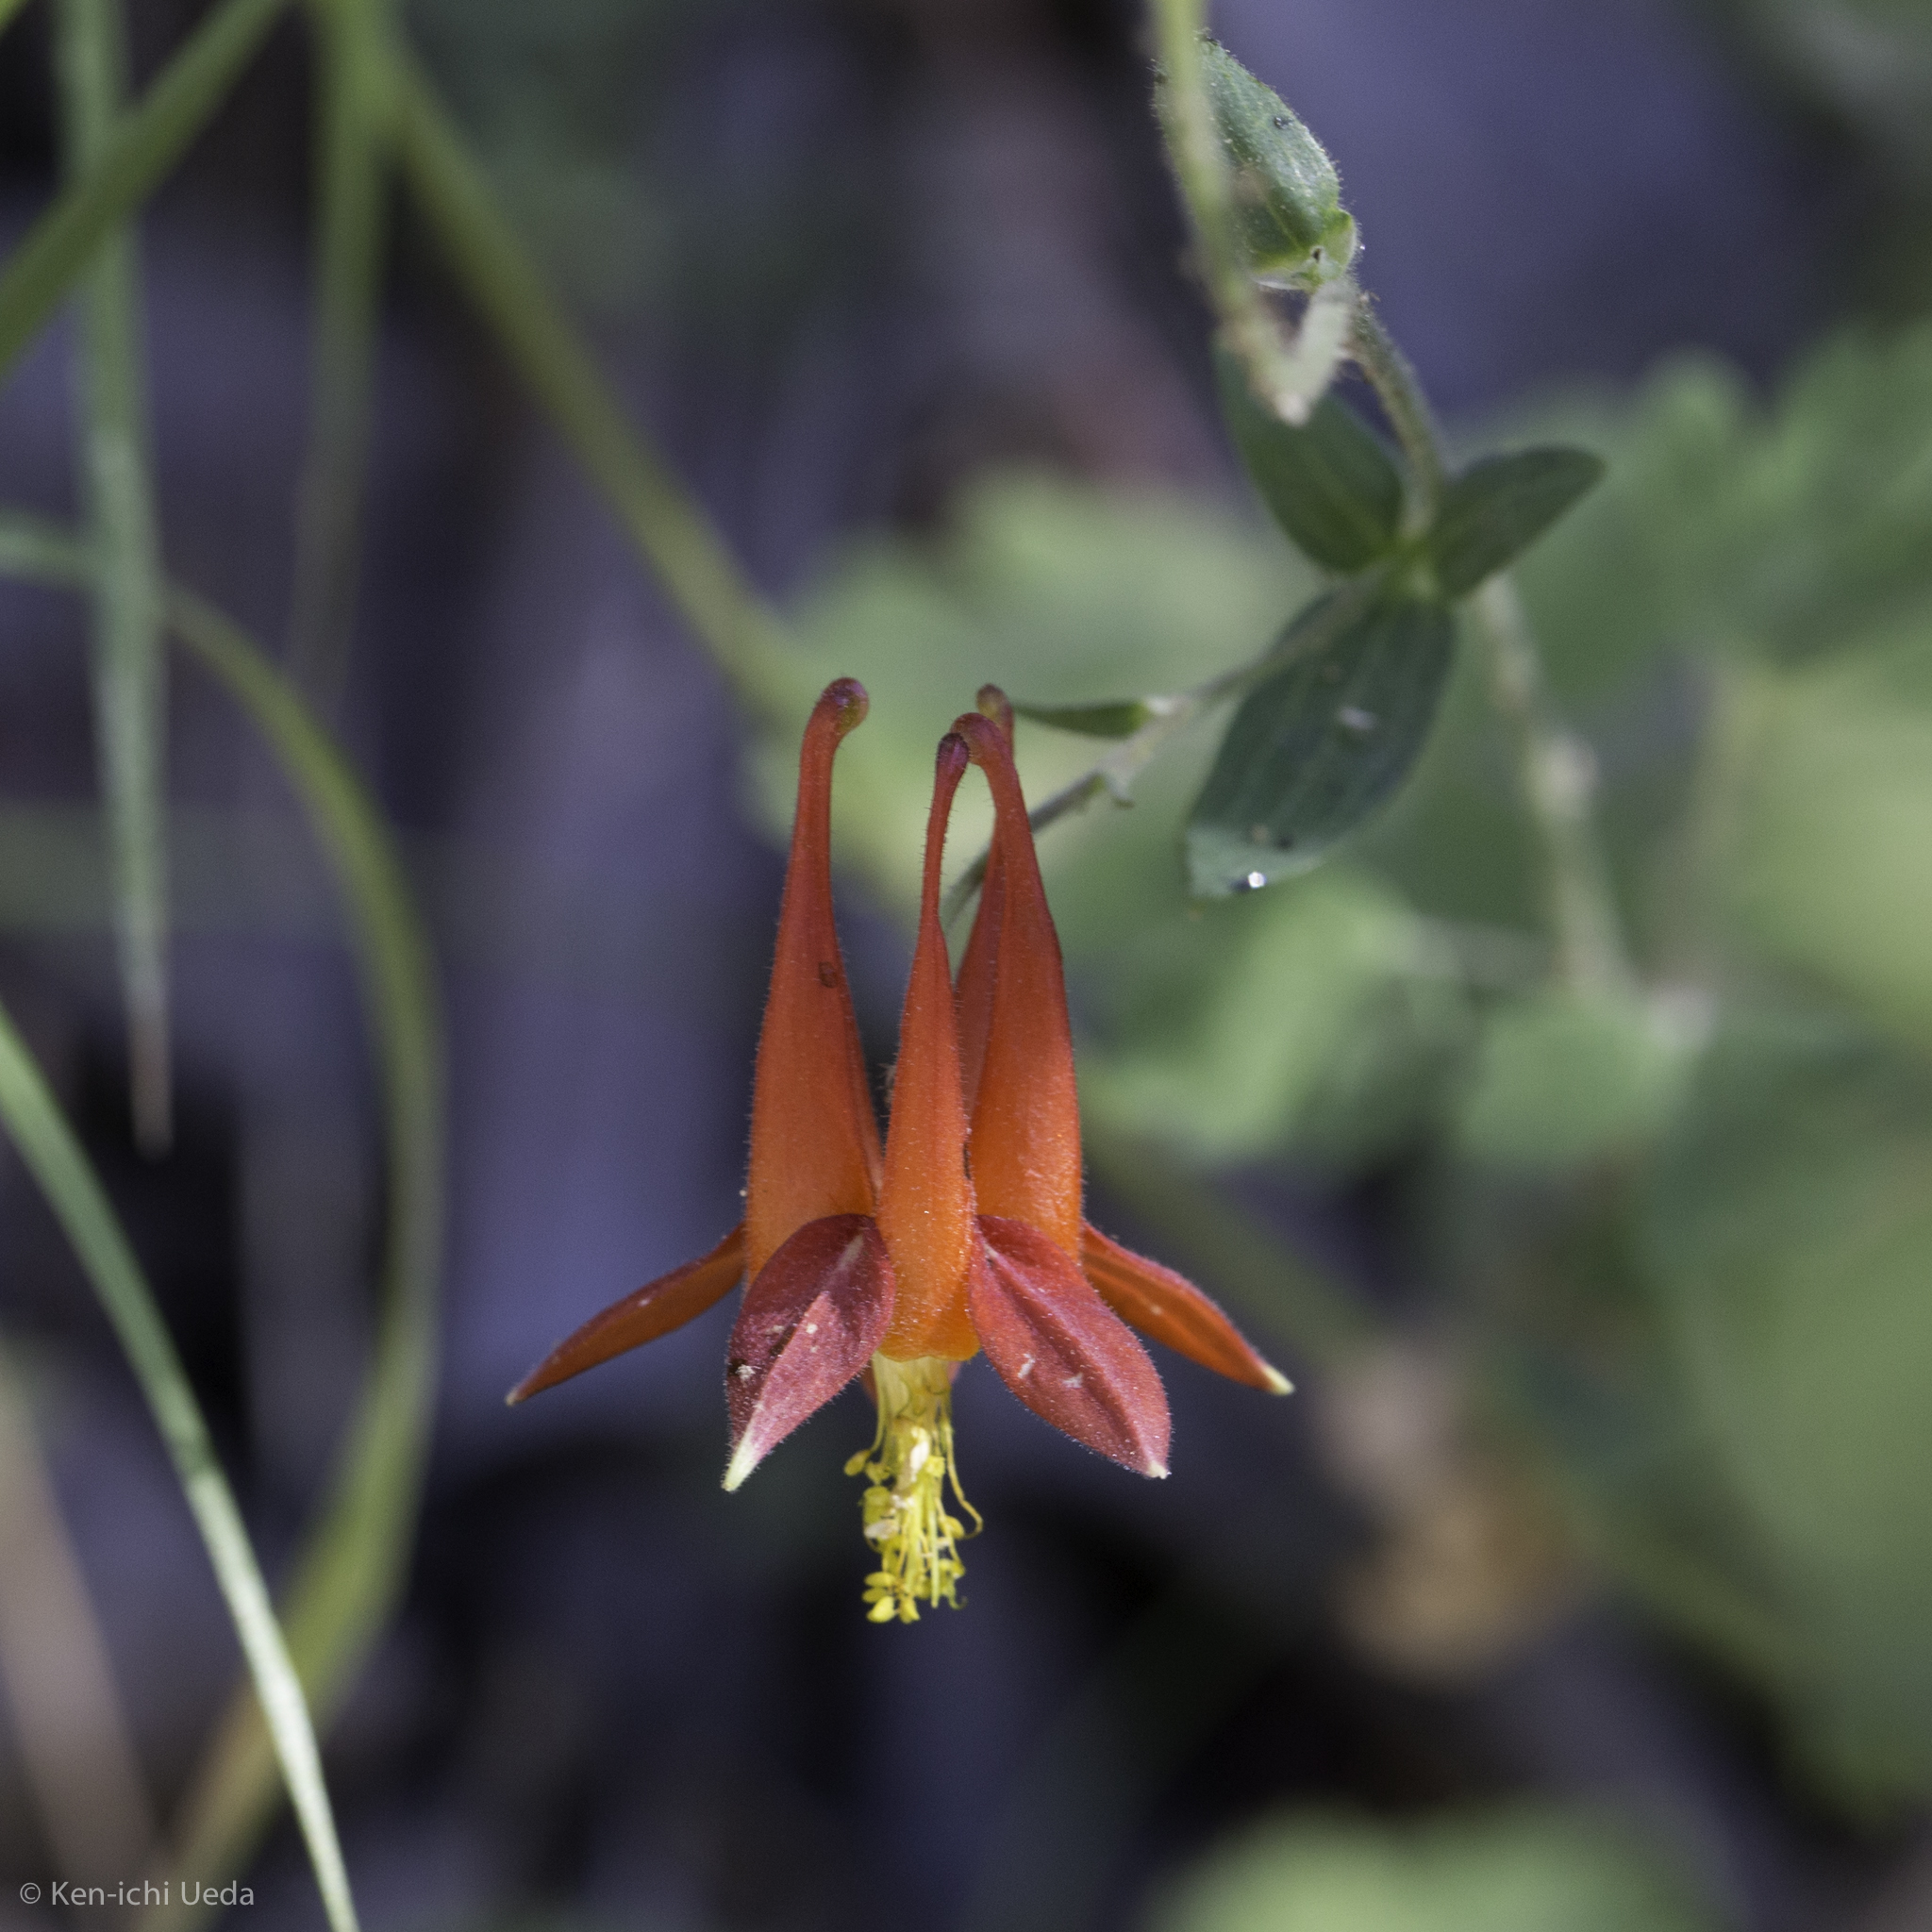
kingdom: Plantae
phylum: Tracheophyta
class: Magnoliopsida
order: Ranunculales
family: Ranunculaceae
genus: Aquilegia
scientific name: Aquilegia formosa
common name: Sitka columbine
